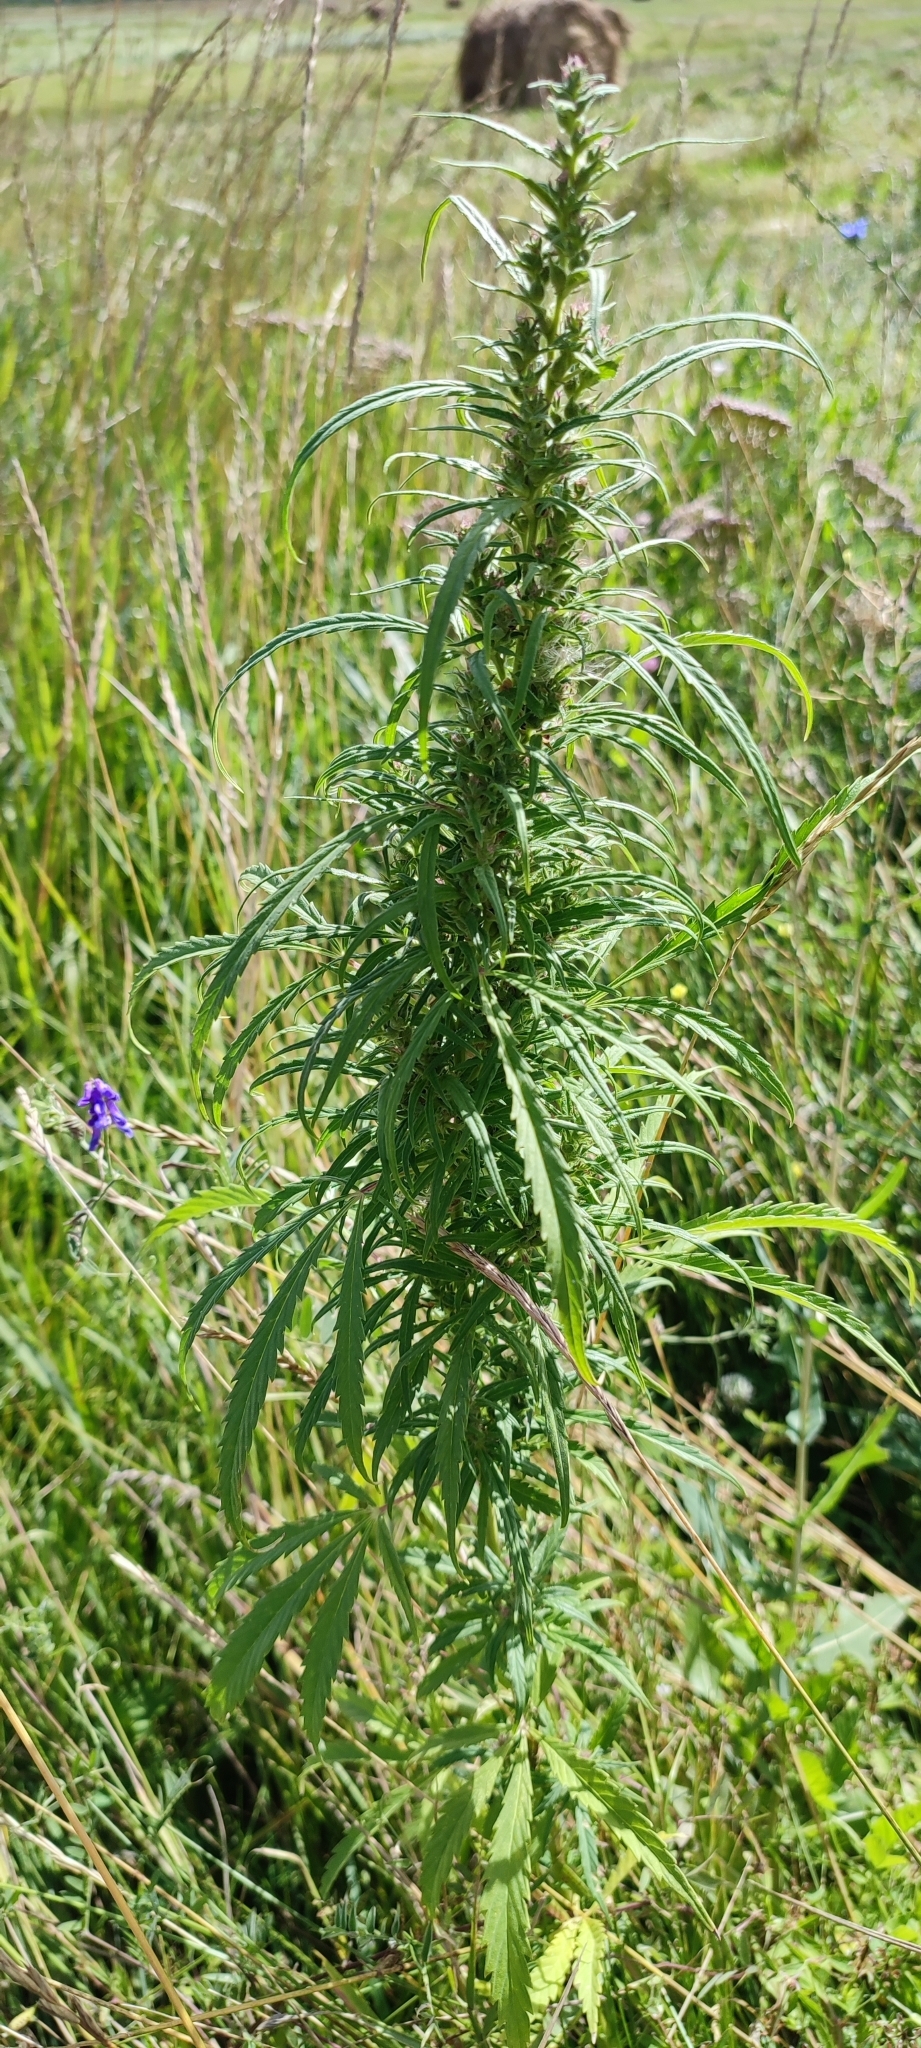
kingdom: Plantae
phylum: Tracheophyta
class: Magnoliopsida
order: Rosales
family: Cannabaceae
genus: Cannabis
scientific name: Cannabis sativa
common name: Hemp
